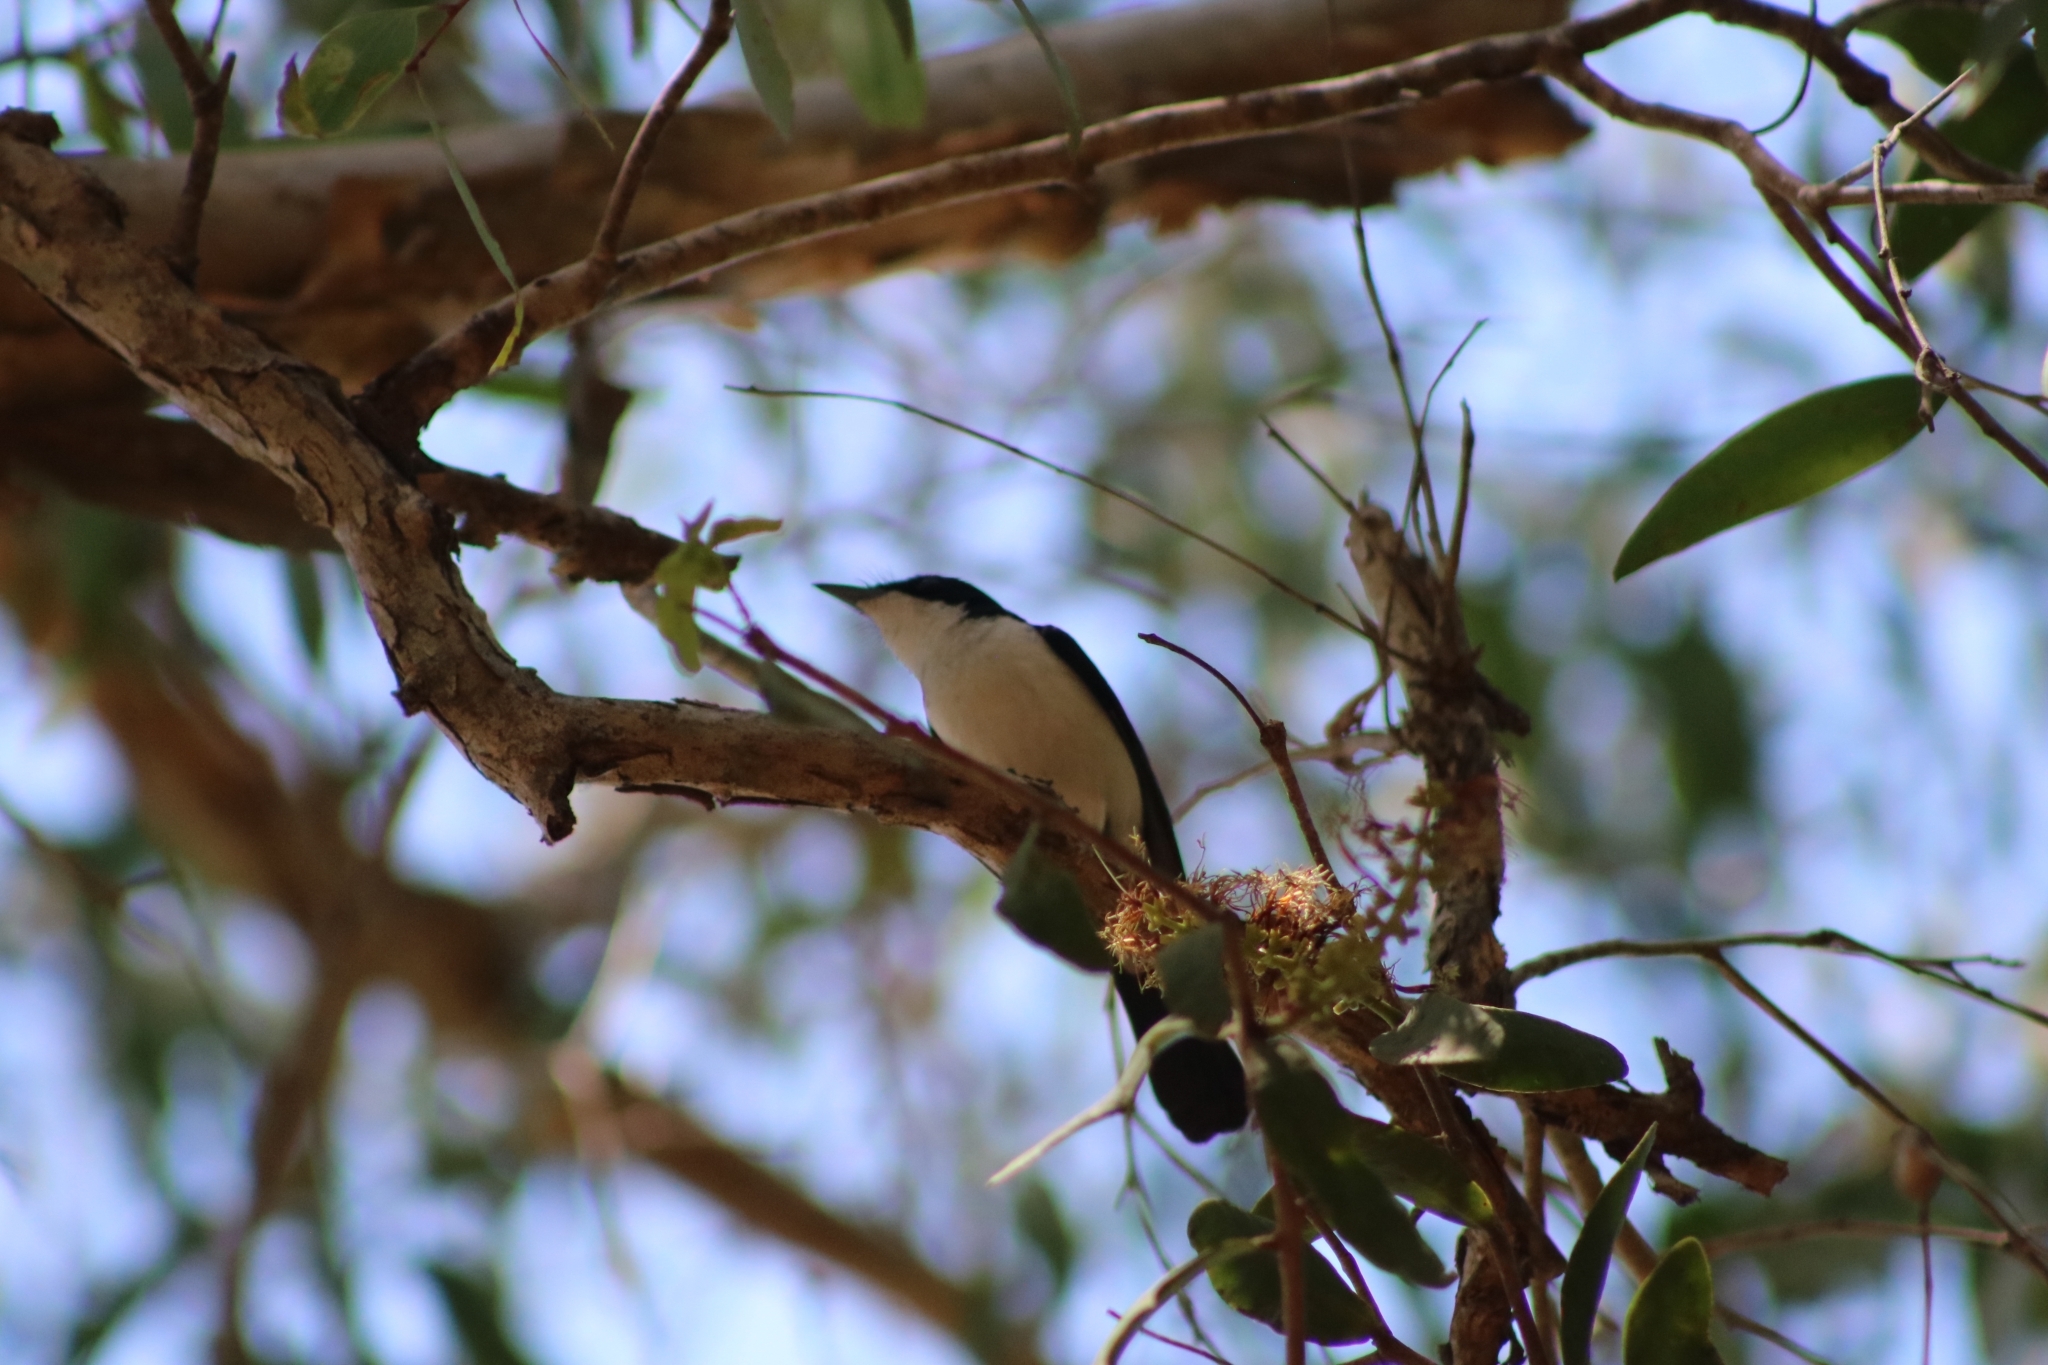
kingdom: Animalia
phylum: Chordata
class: Aves
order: Passeriformes
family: Monarchidae
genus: Myiagra
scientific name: Myiagra nana
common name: Paperbark flycatcher
